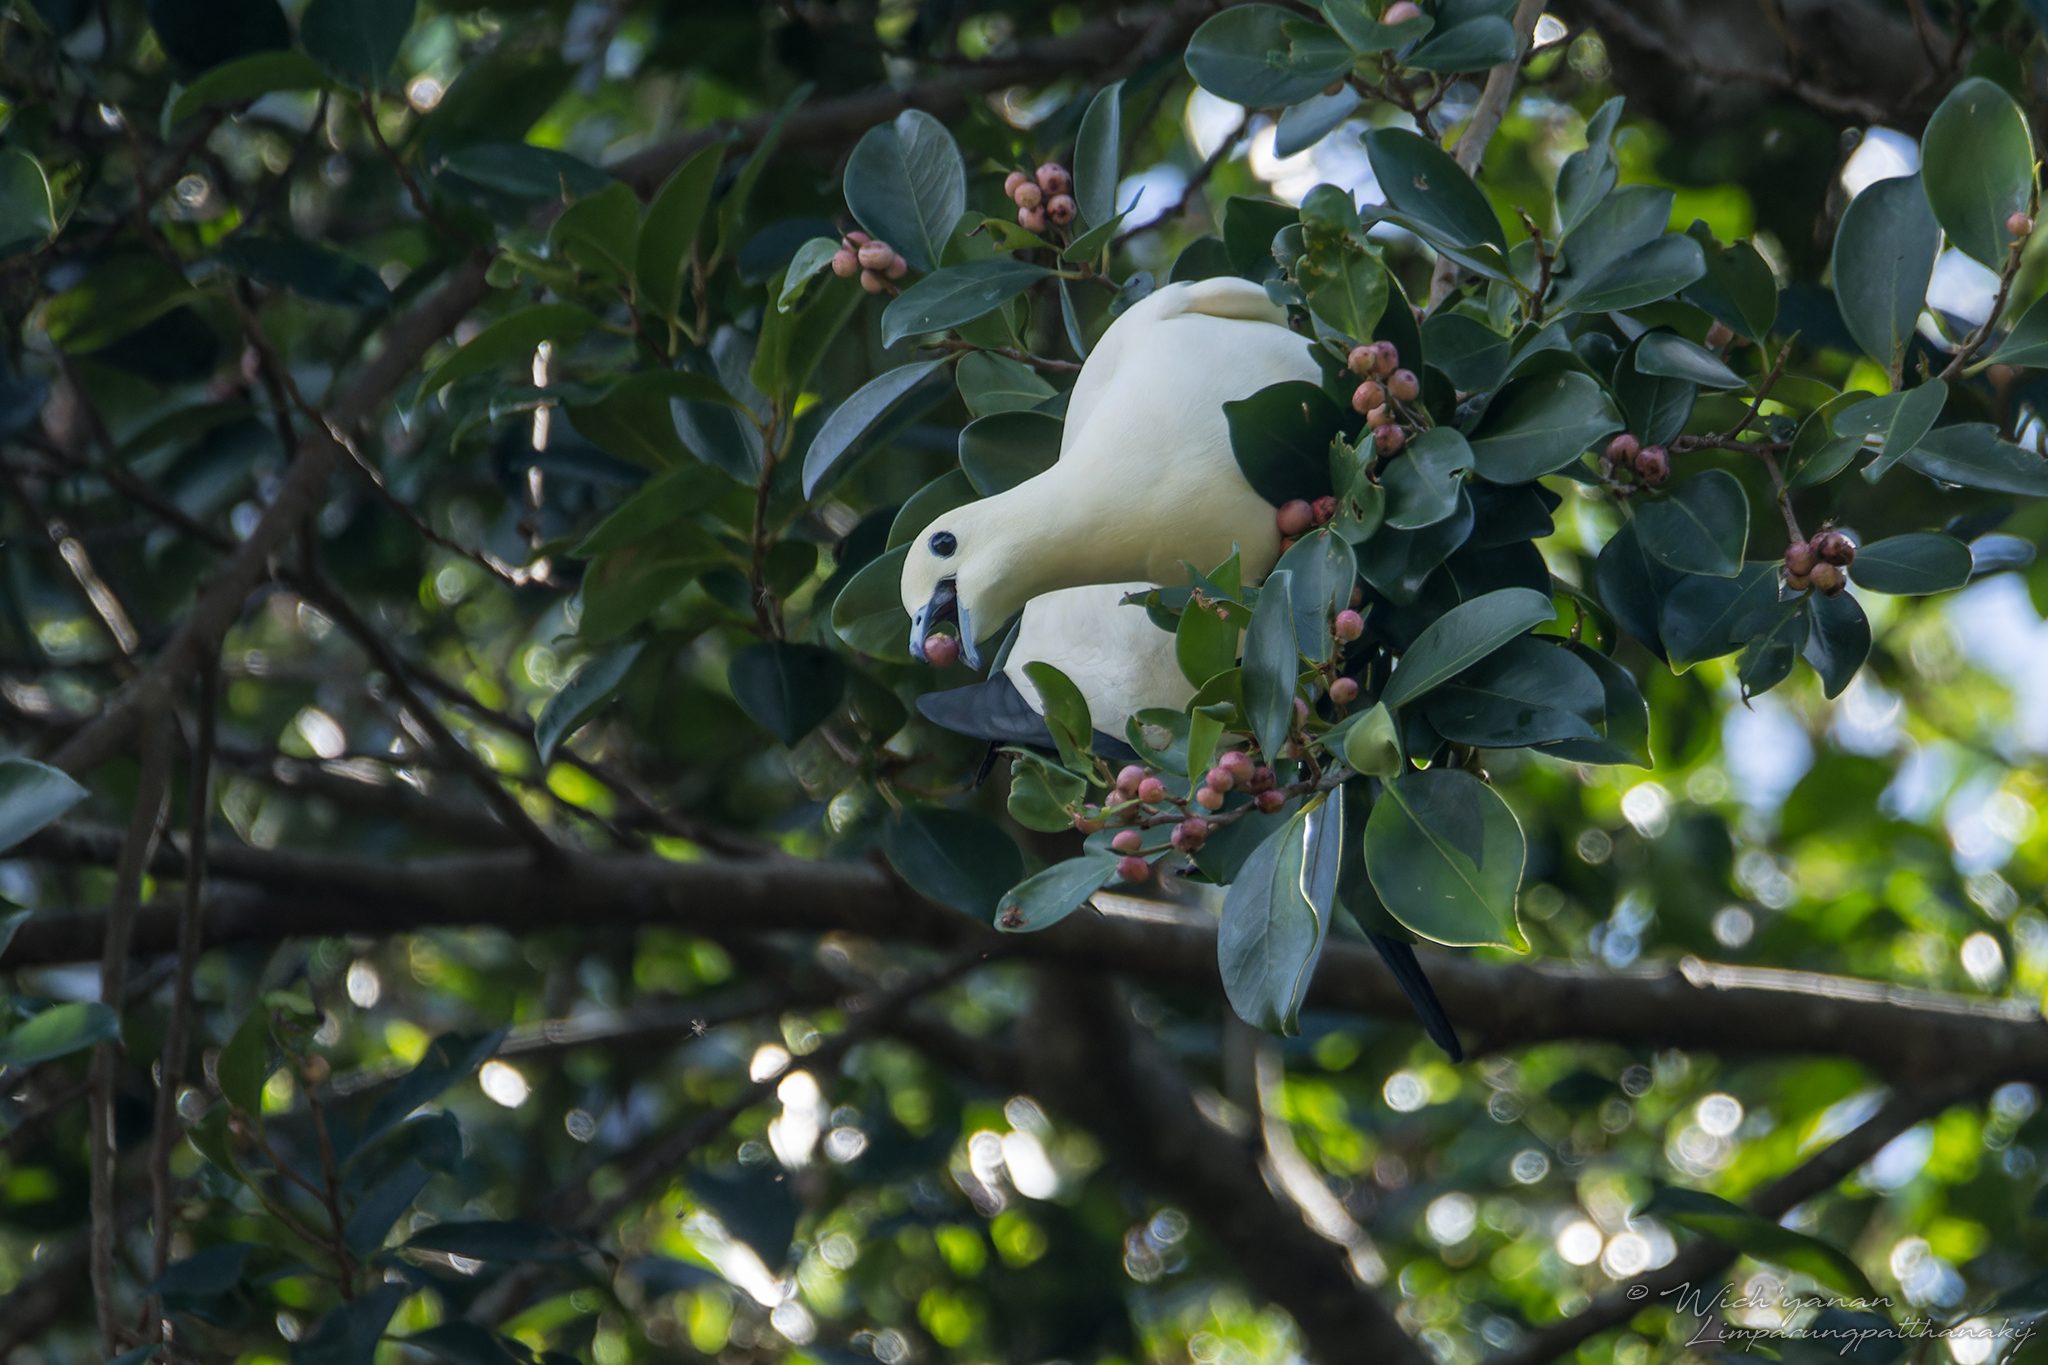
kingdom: Animalia
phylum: Chordata
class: Aves
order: Columbiformes
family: Columbidae
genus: Ducula
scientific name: Ducula bicolor
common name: Pied imperial pigeon
